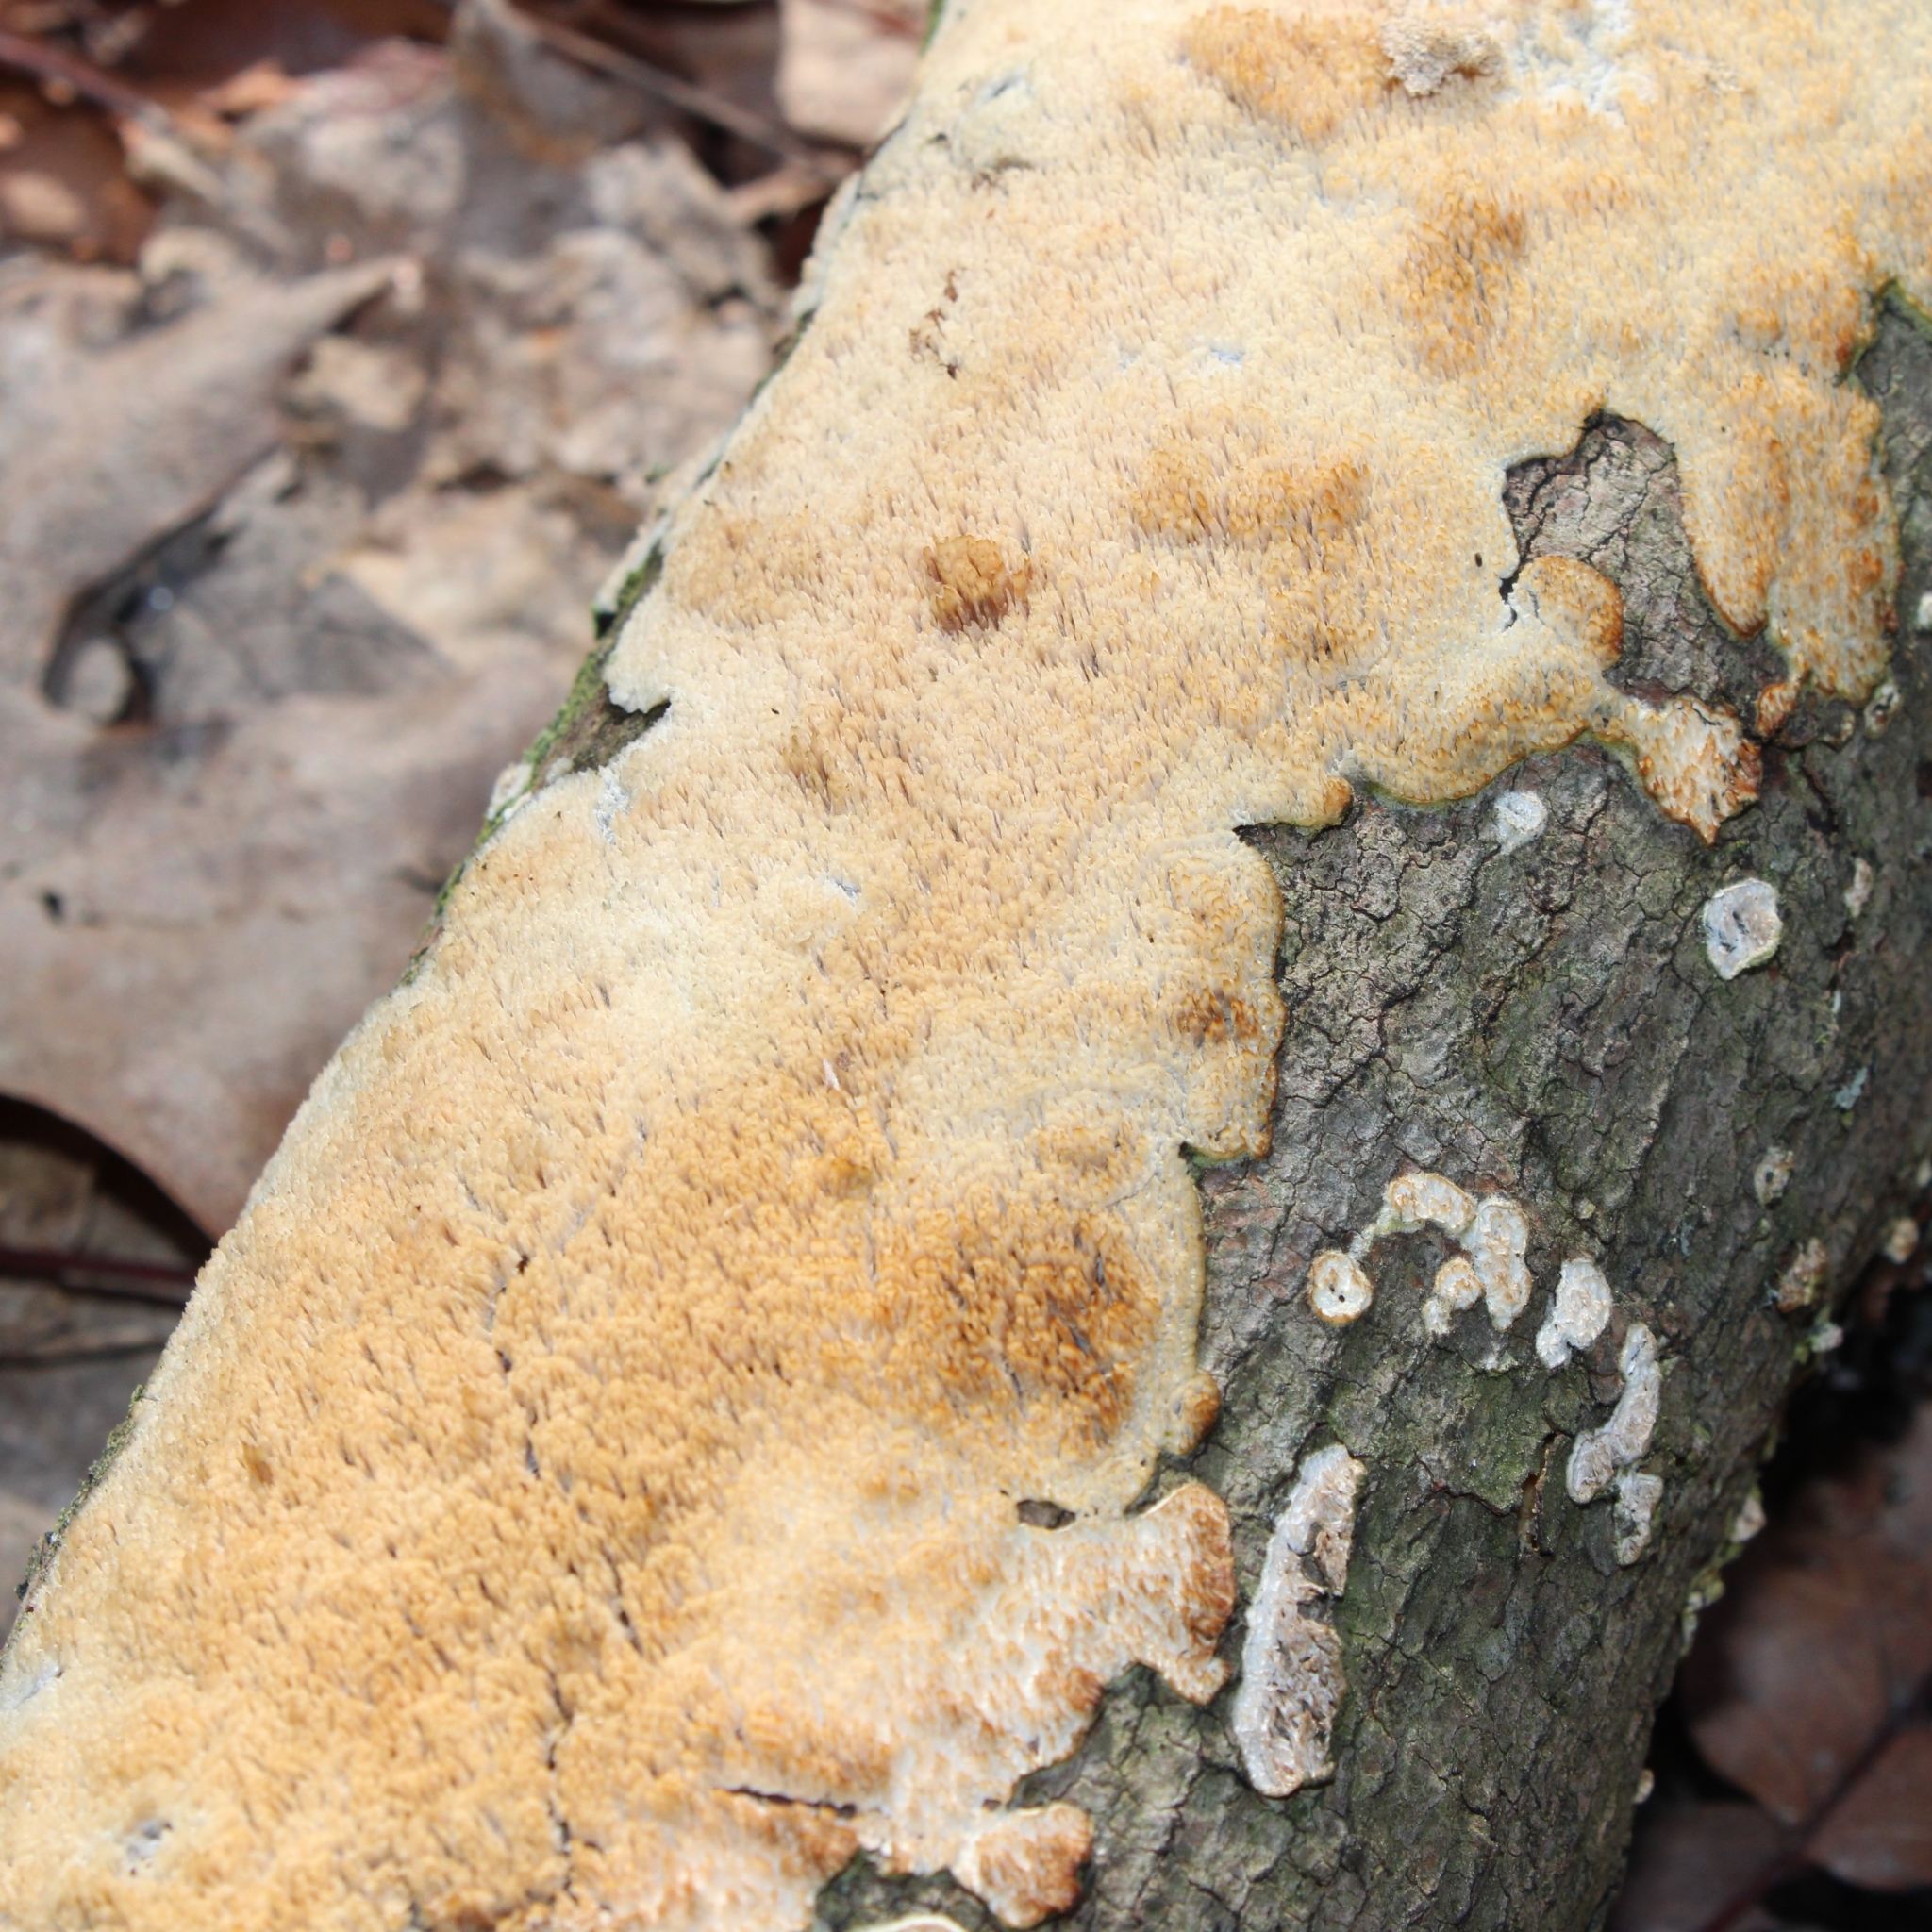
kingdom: Fungi
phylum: Basidiomycota
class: Agaricomycetes
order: Polyporales
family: Irpicaceae
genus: Irpex
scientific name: Irpex lacteus
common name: Milk-white toothed polypore
